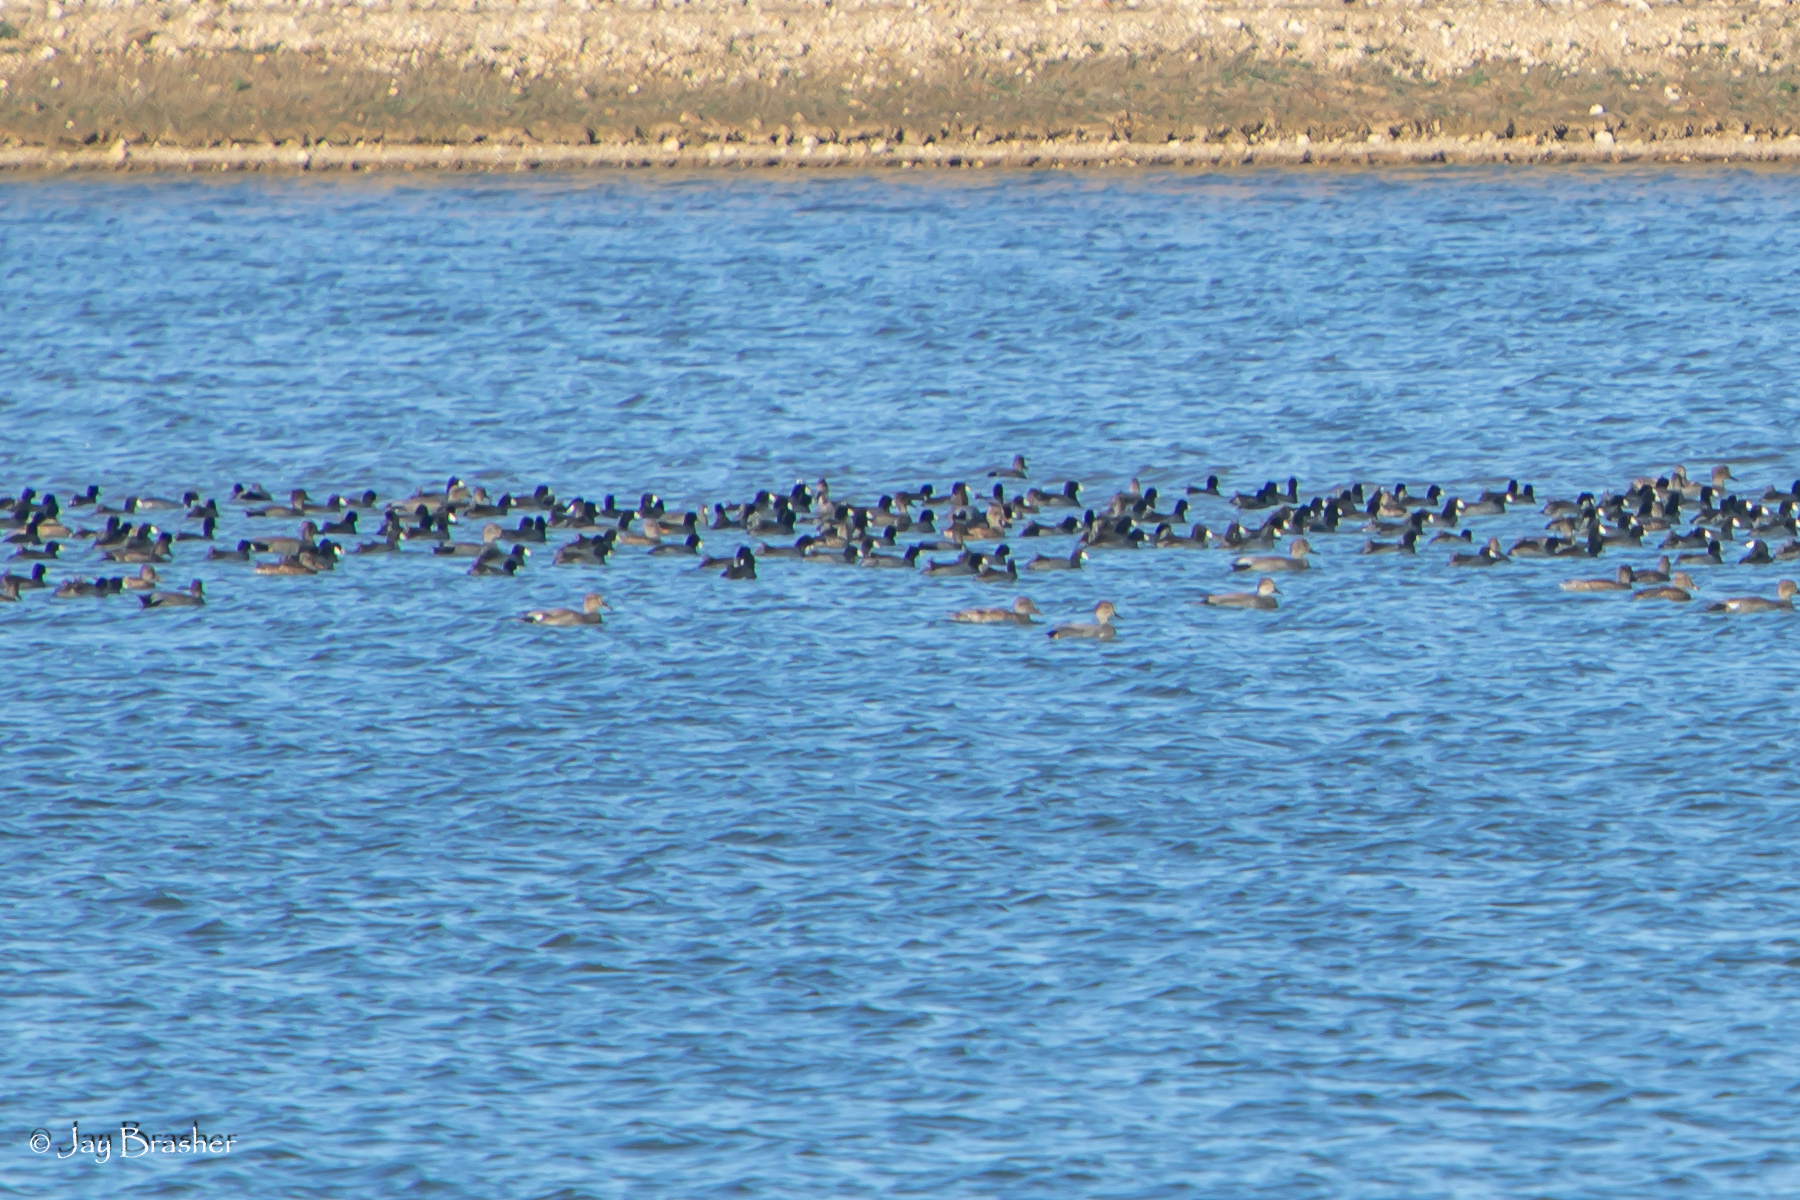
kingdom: Animalia
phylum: Chordata
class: Aves
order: Gruiformes
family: Rallidae
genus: Fulica
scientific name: Fulica americana
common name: American coot
